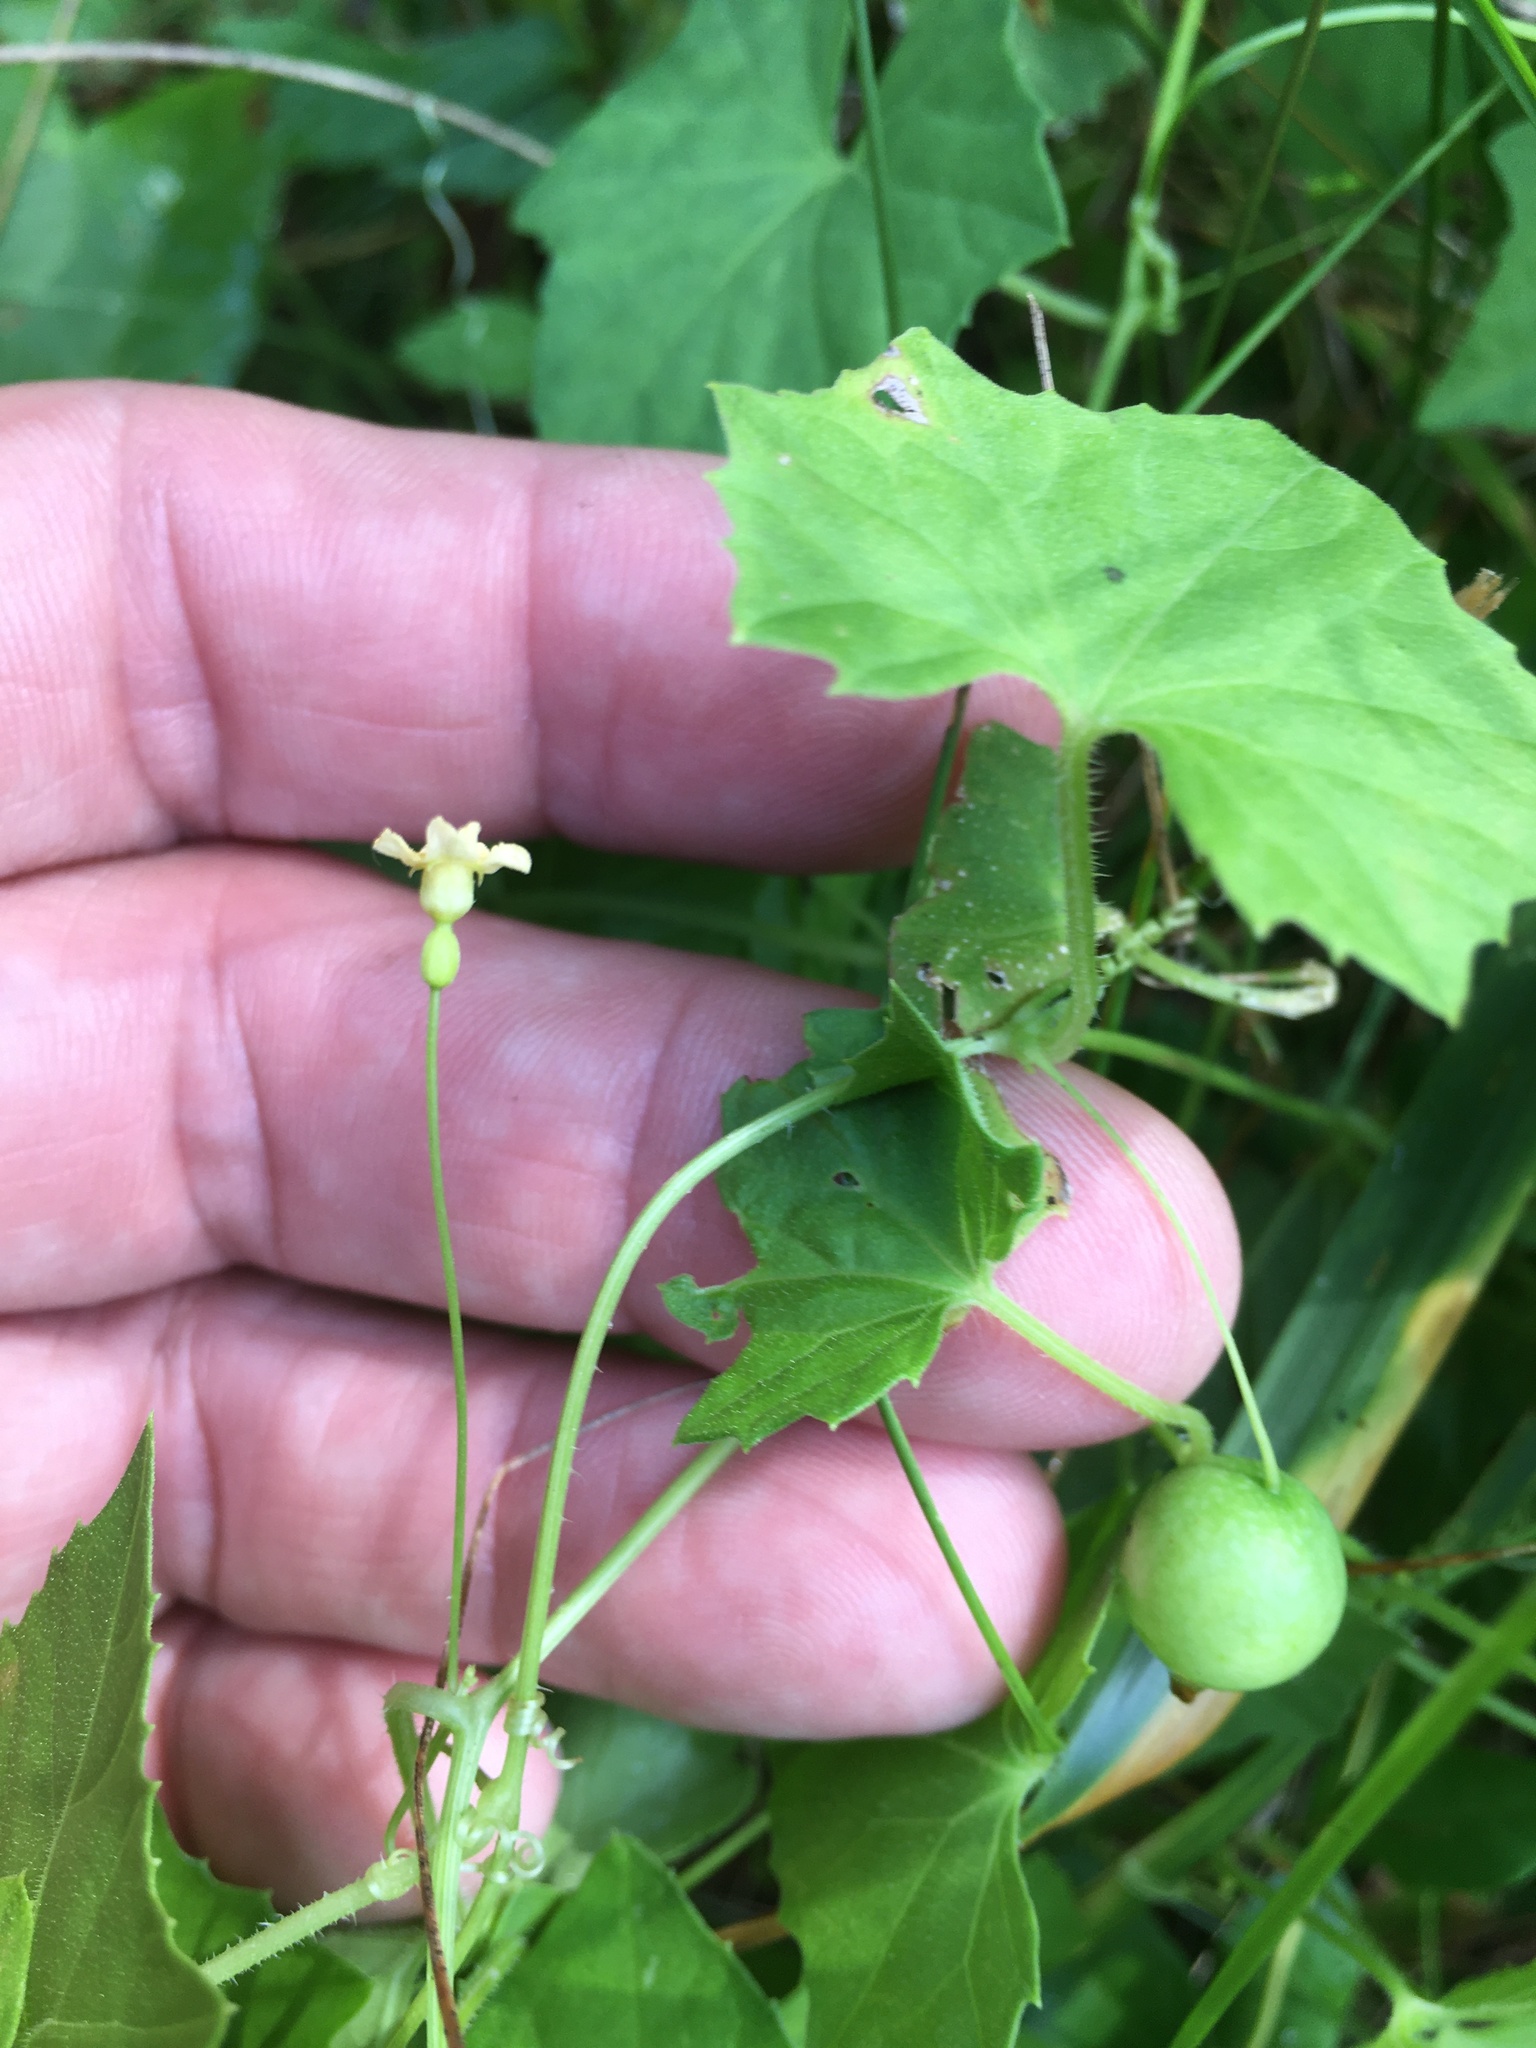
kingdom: Plantae
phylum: Tracheophyta
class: Magnoliopsida
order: Cucurbitales
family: Cucurbitaceae
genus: Melothria
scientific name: Melothria pendula
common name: Creeping-cucumber
